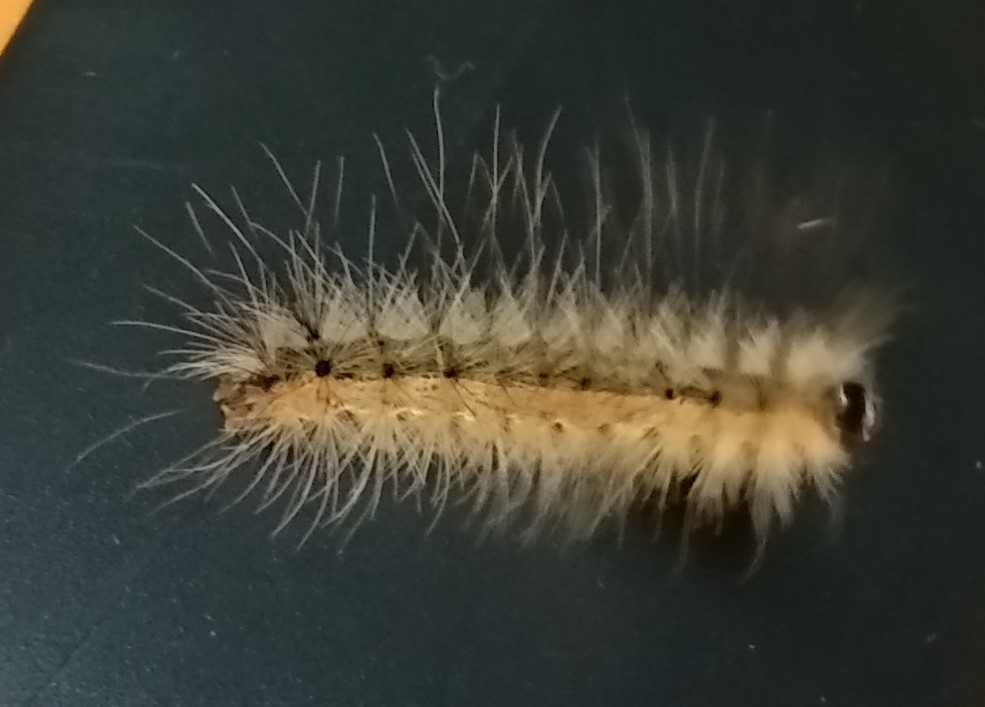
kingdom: Animalia
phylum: Arthropoda
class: Insecta
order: Lepidoptera
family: Erebidae
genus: Hyphantria
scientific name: Hyphantria cunea
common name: American white moth
